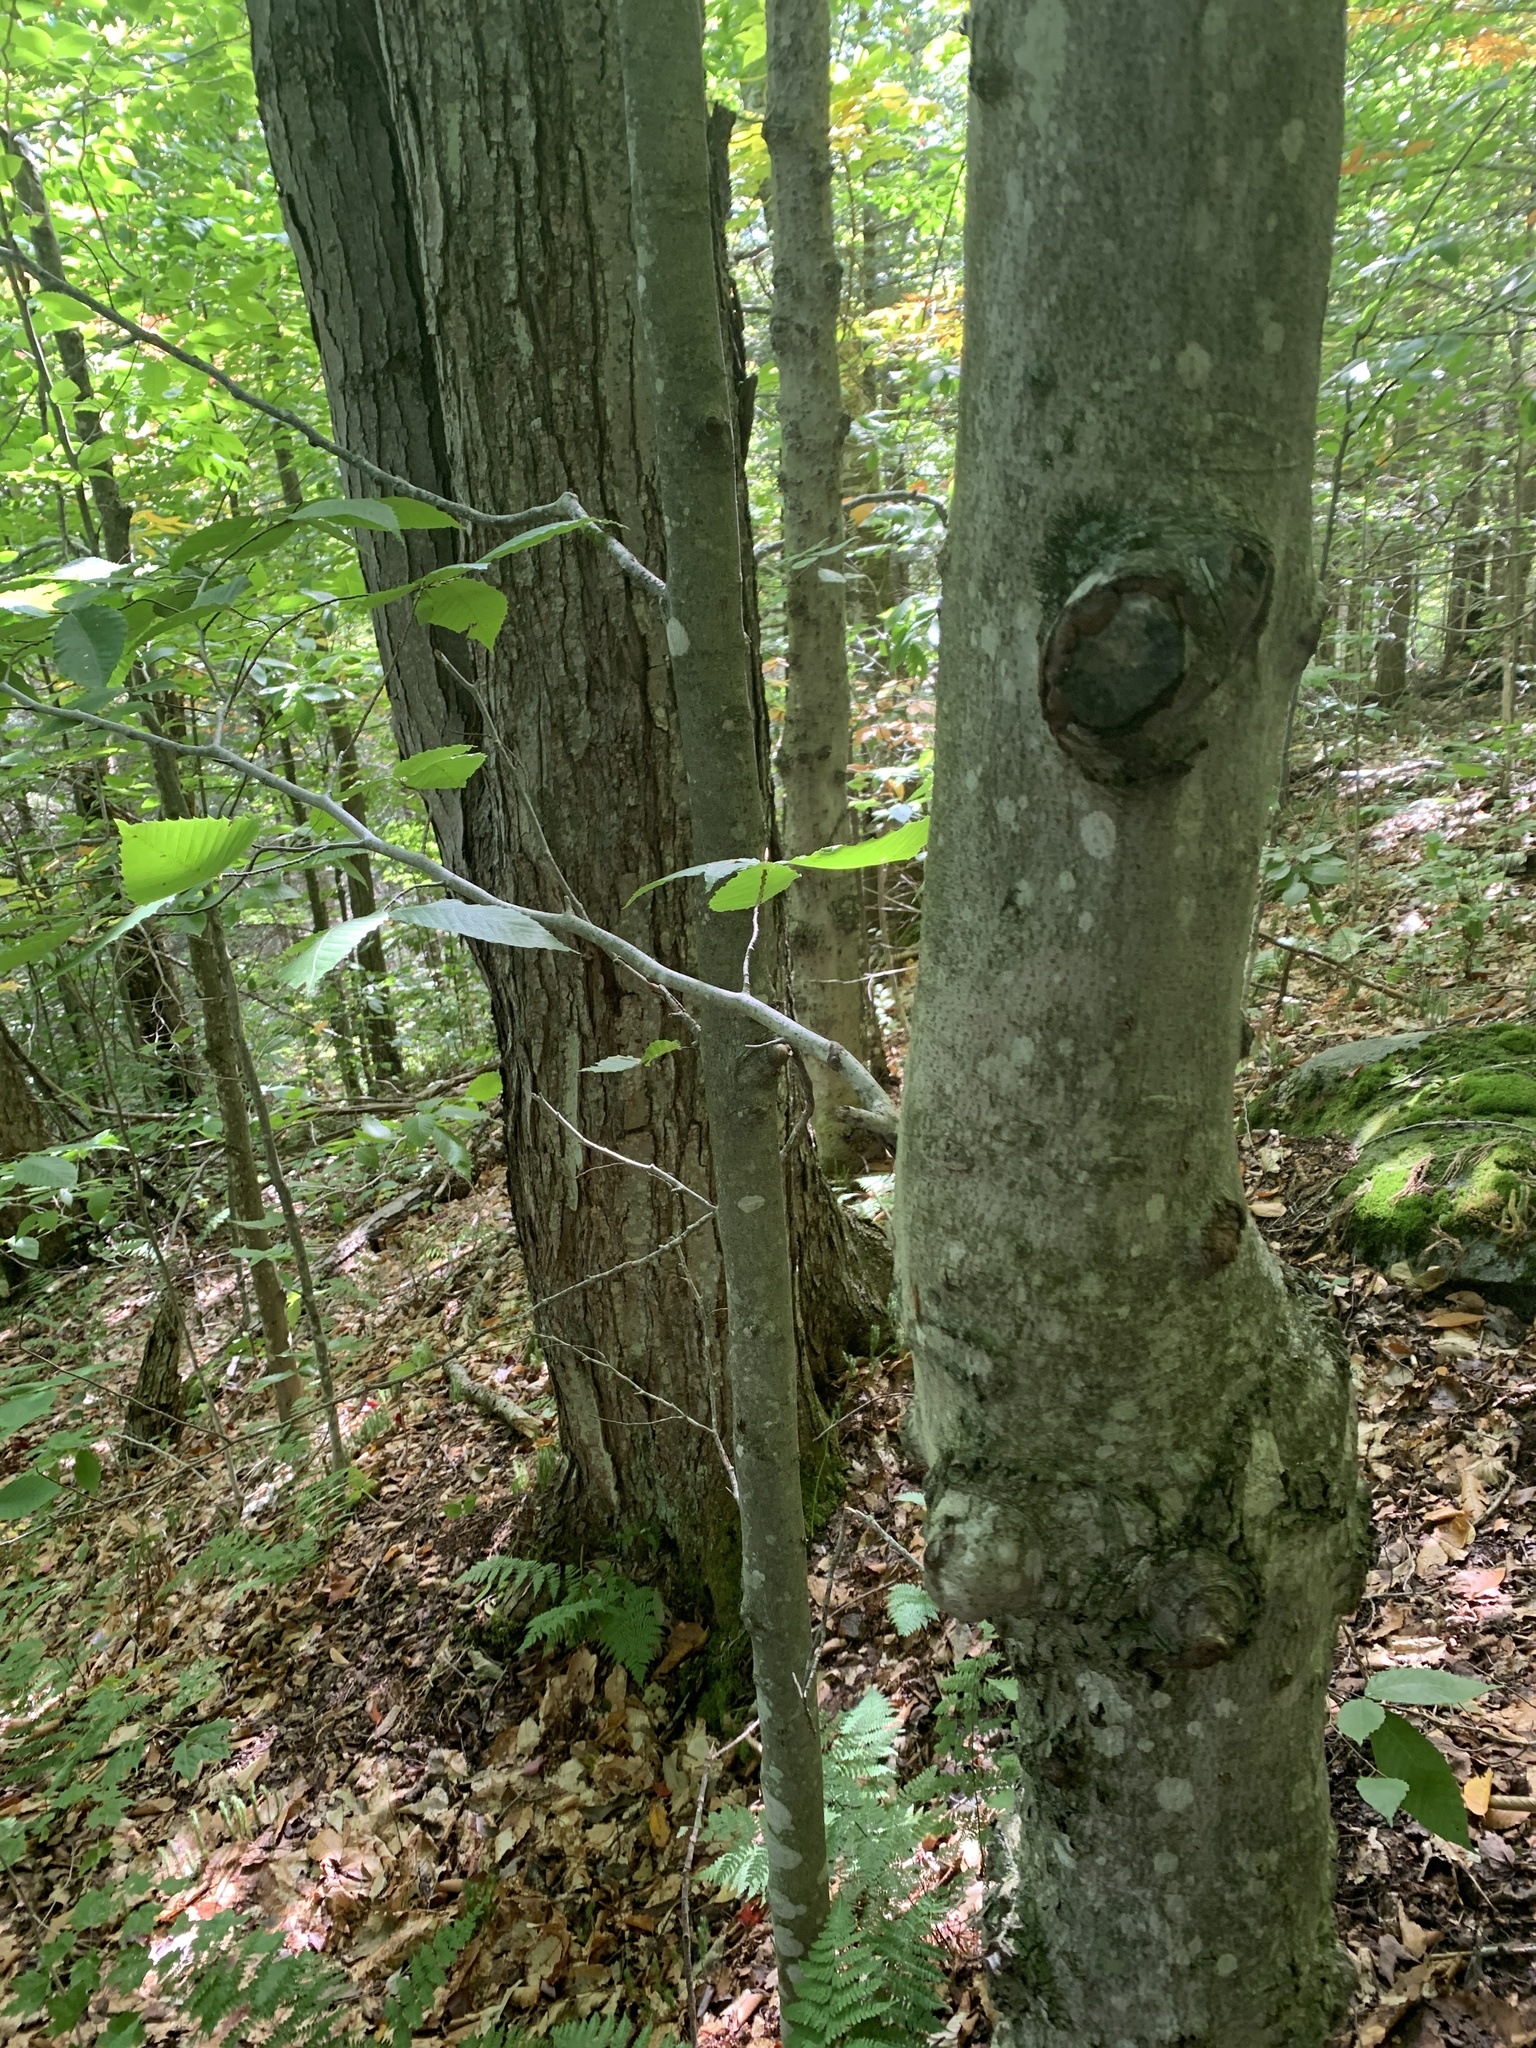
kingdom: Plantae
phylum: Tracheophyta
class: Magnoliopsida
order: Fagales
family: Fagaceae
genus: Fagus
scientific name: Fagus grandifolia
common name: American beech
